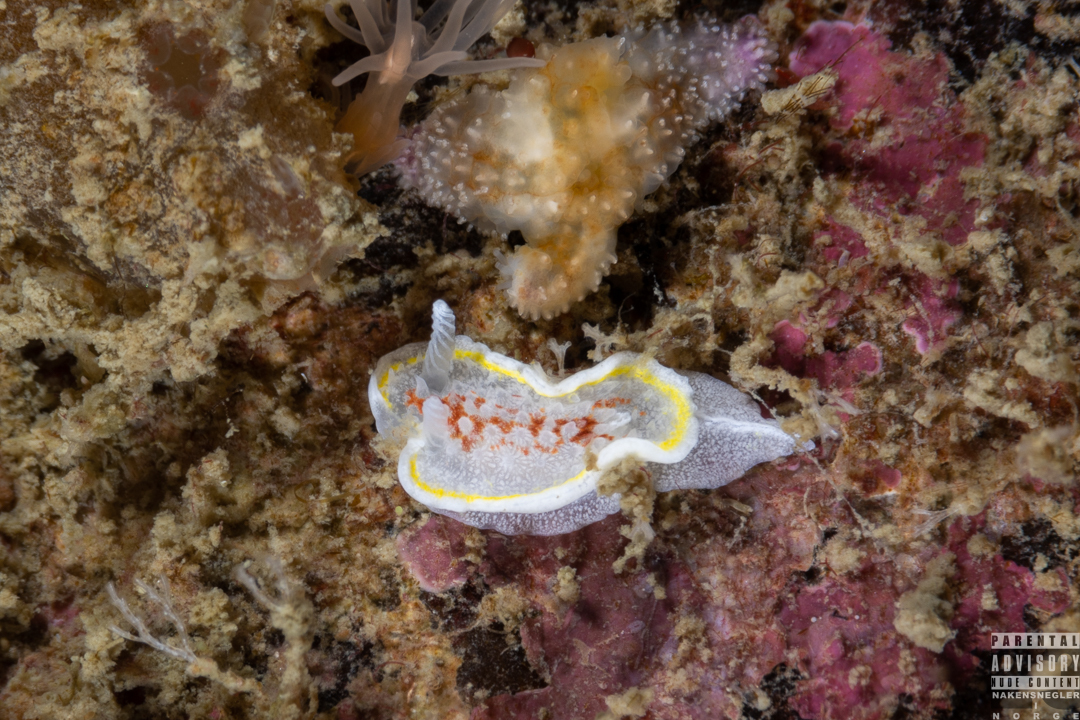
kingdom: Animalia
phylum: Mollusca
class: Gastropoda
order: Nudibranchia
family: Calycidorididae
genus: Diaphorodoris
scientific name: Diaphorodoris luteocincta
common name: Fried egg nudibranch
